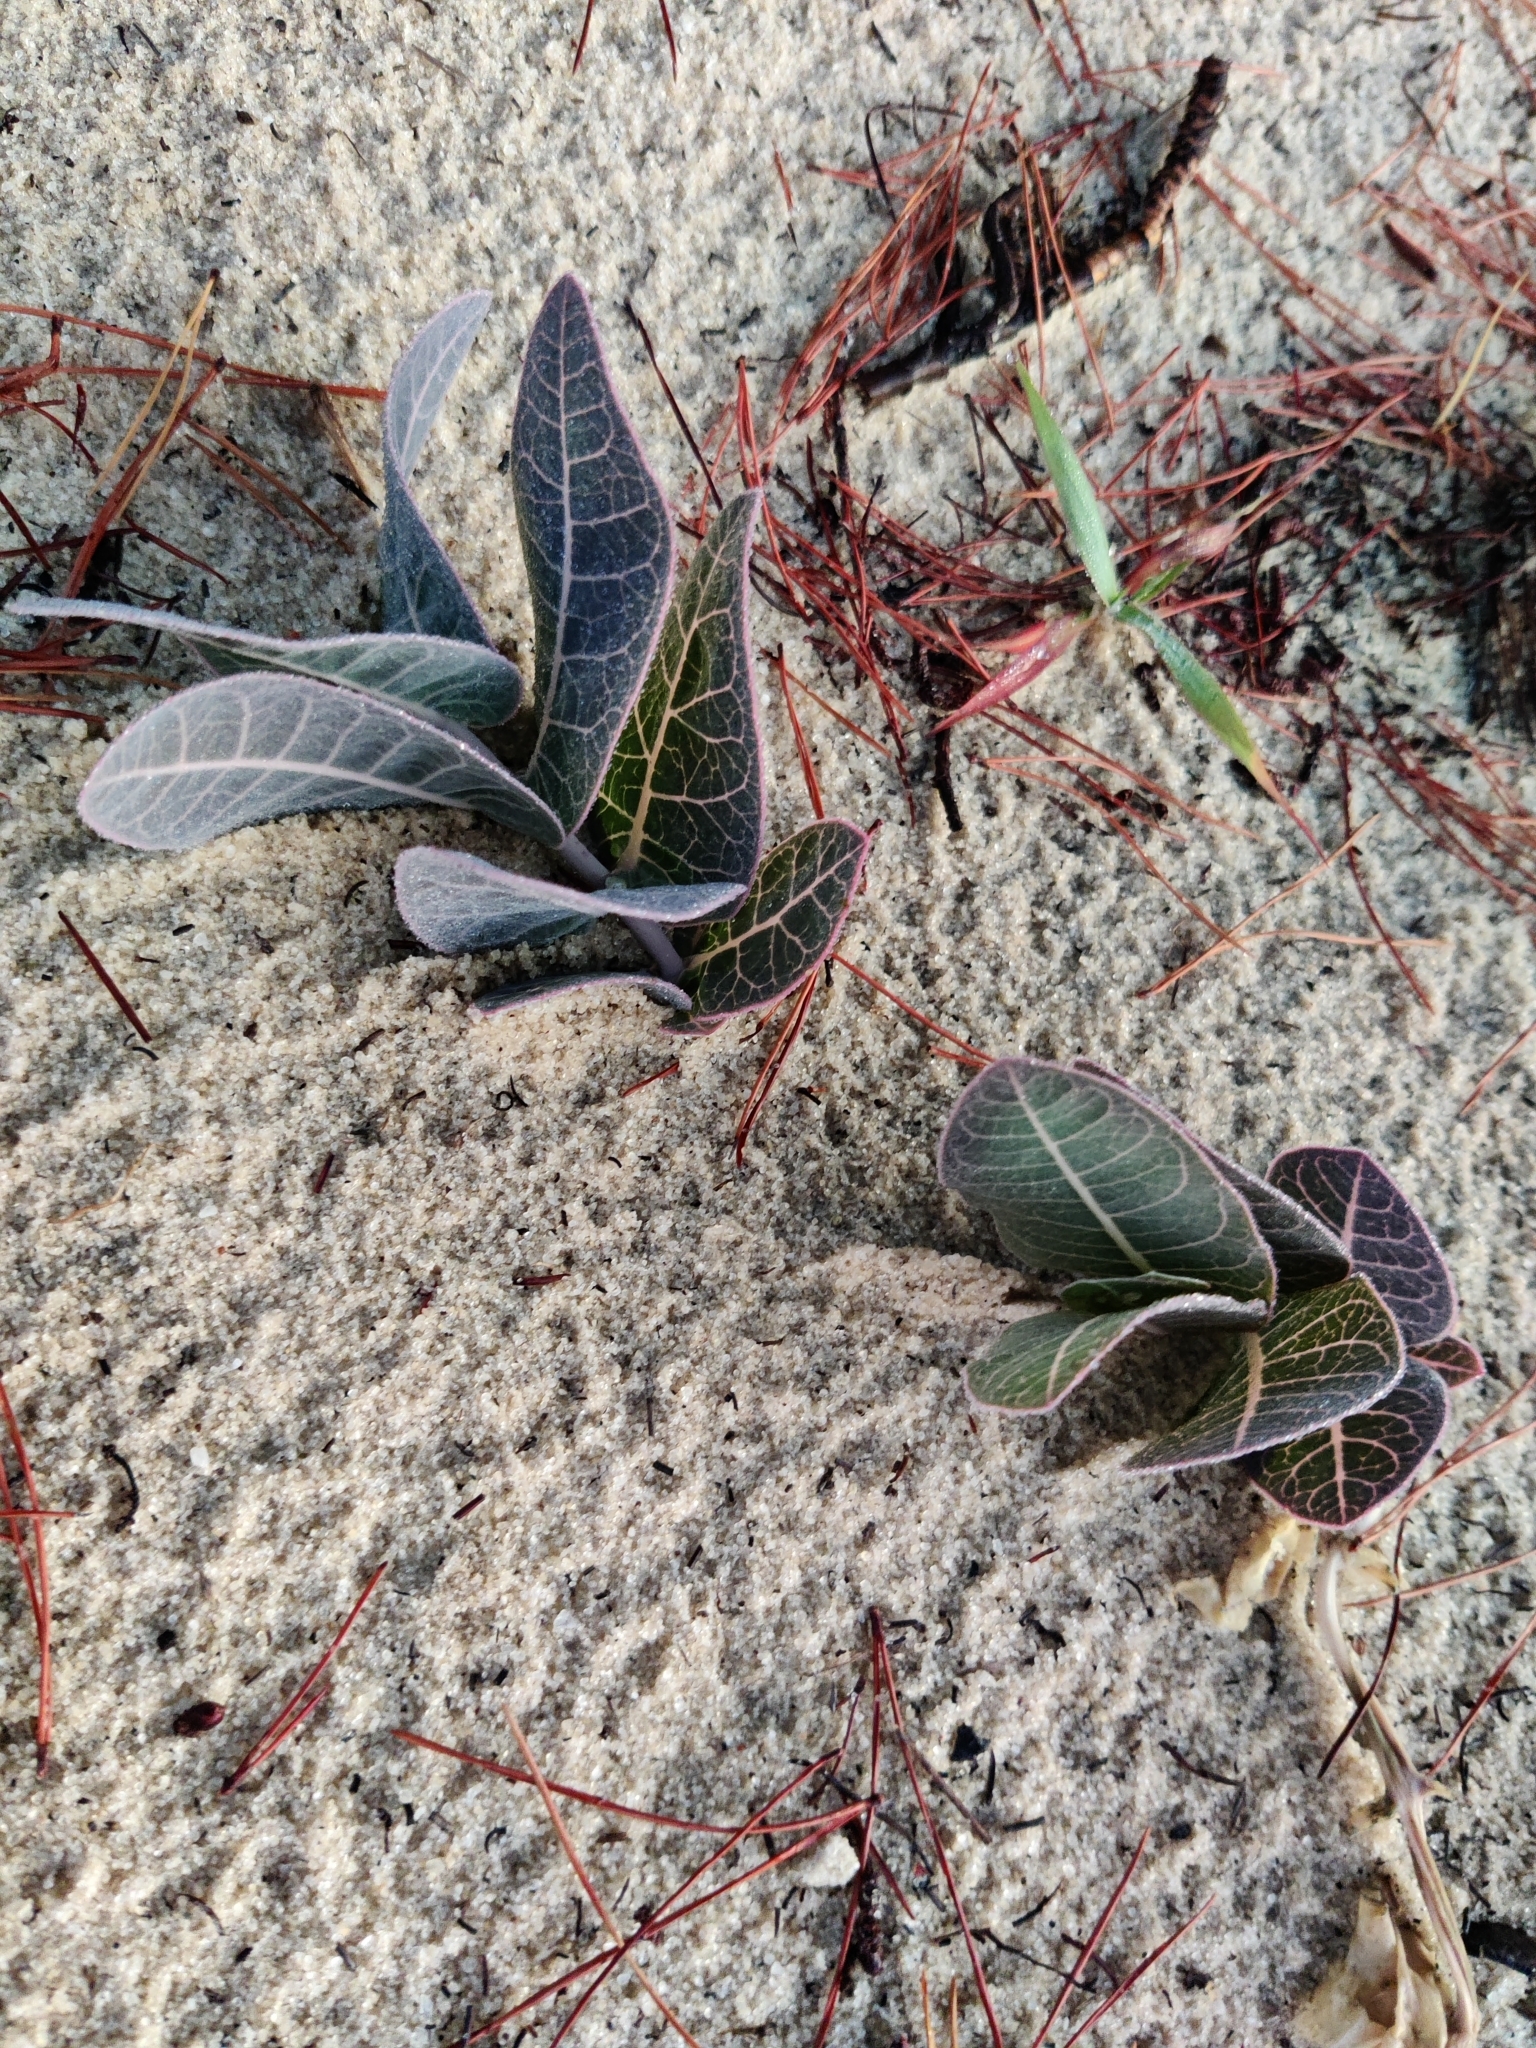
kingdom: Plantae
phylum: Tracheophyta
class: Magnoliopsida
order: Gentianales
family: Apocynaceae
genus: Asclepias
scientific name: Asclepias humistrata
